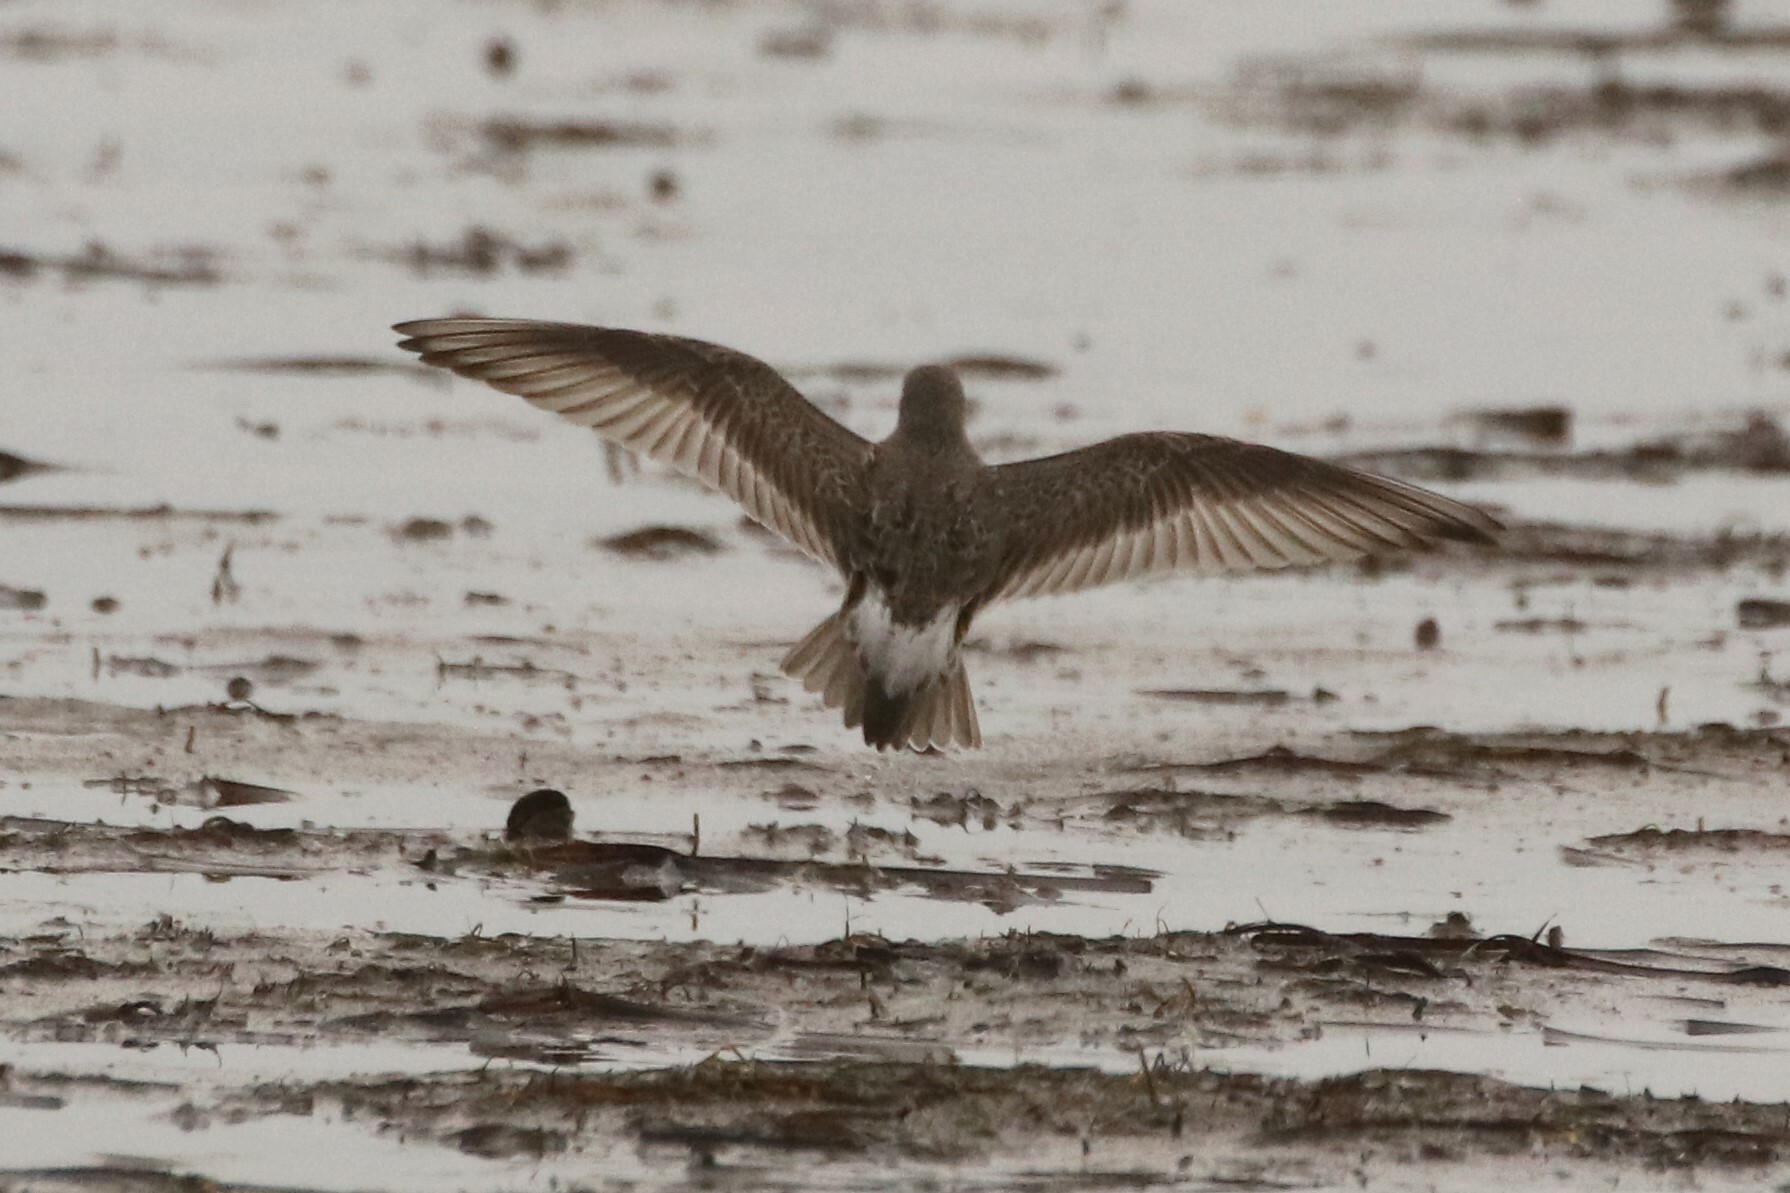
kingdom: Animalia
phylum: Chordata
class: Aves
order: Charadriiformes
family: Scolopacidae
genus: Calidris
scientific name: Calidris fuscicollis
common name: White-rumped sandpiper
